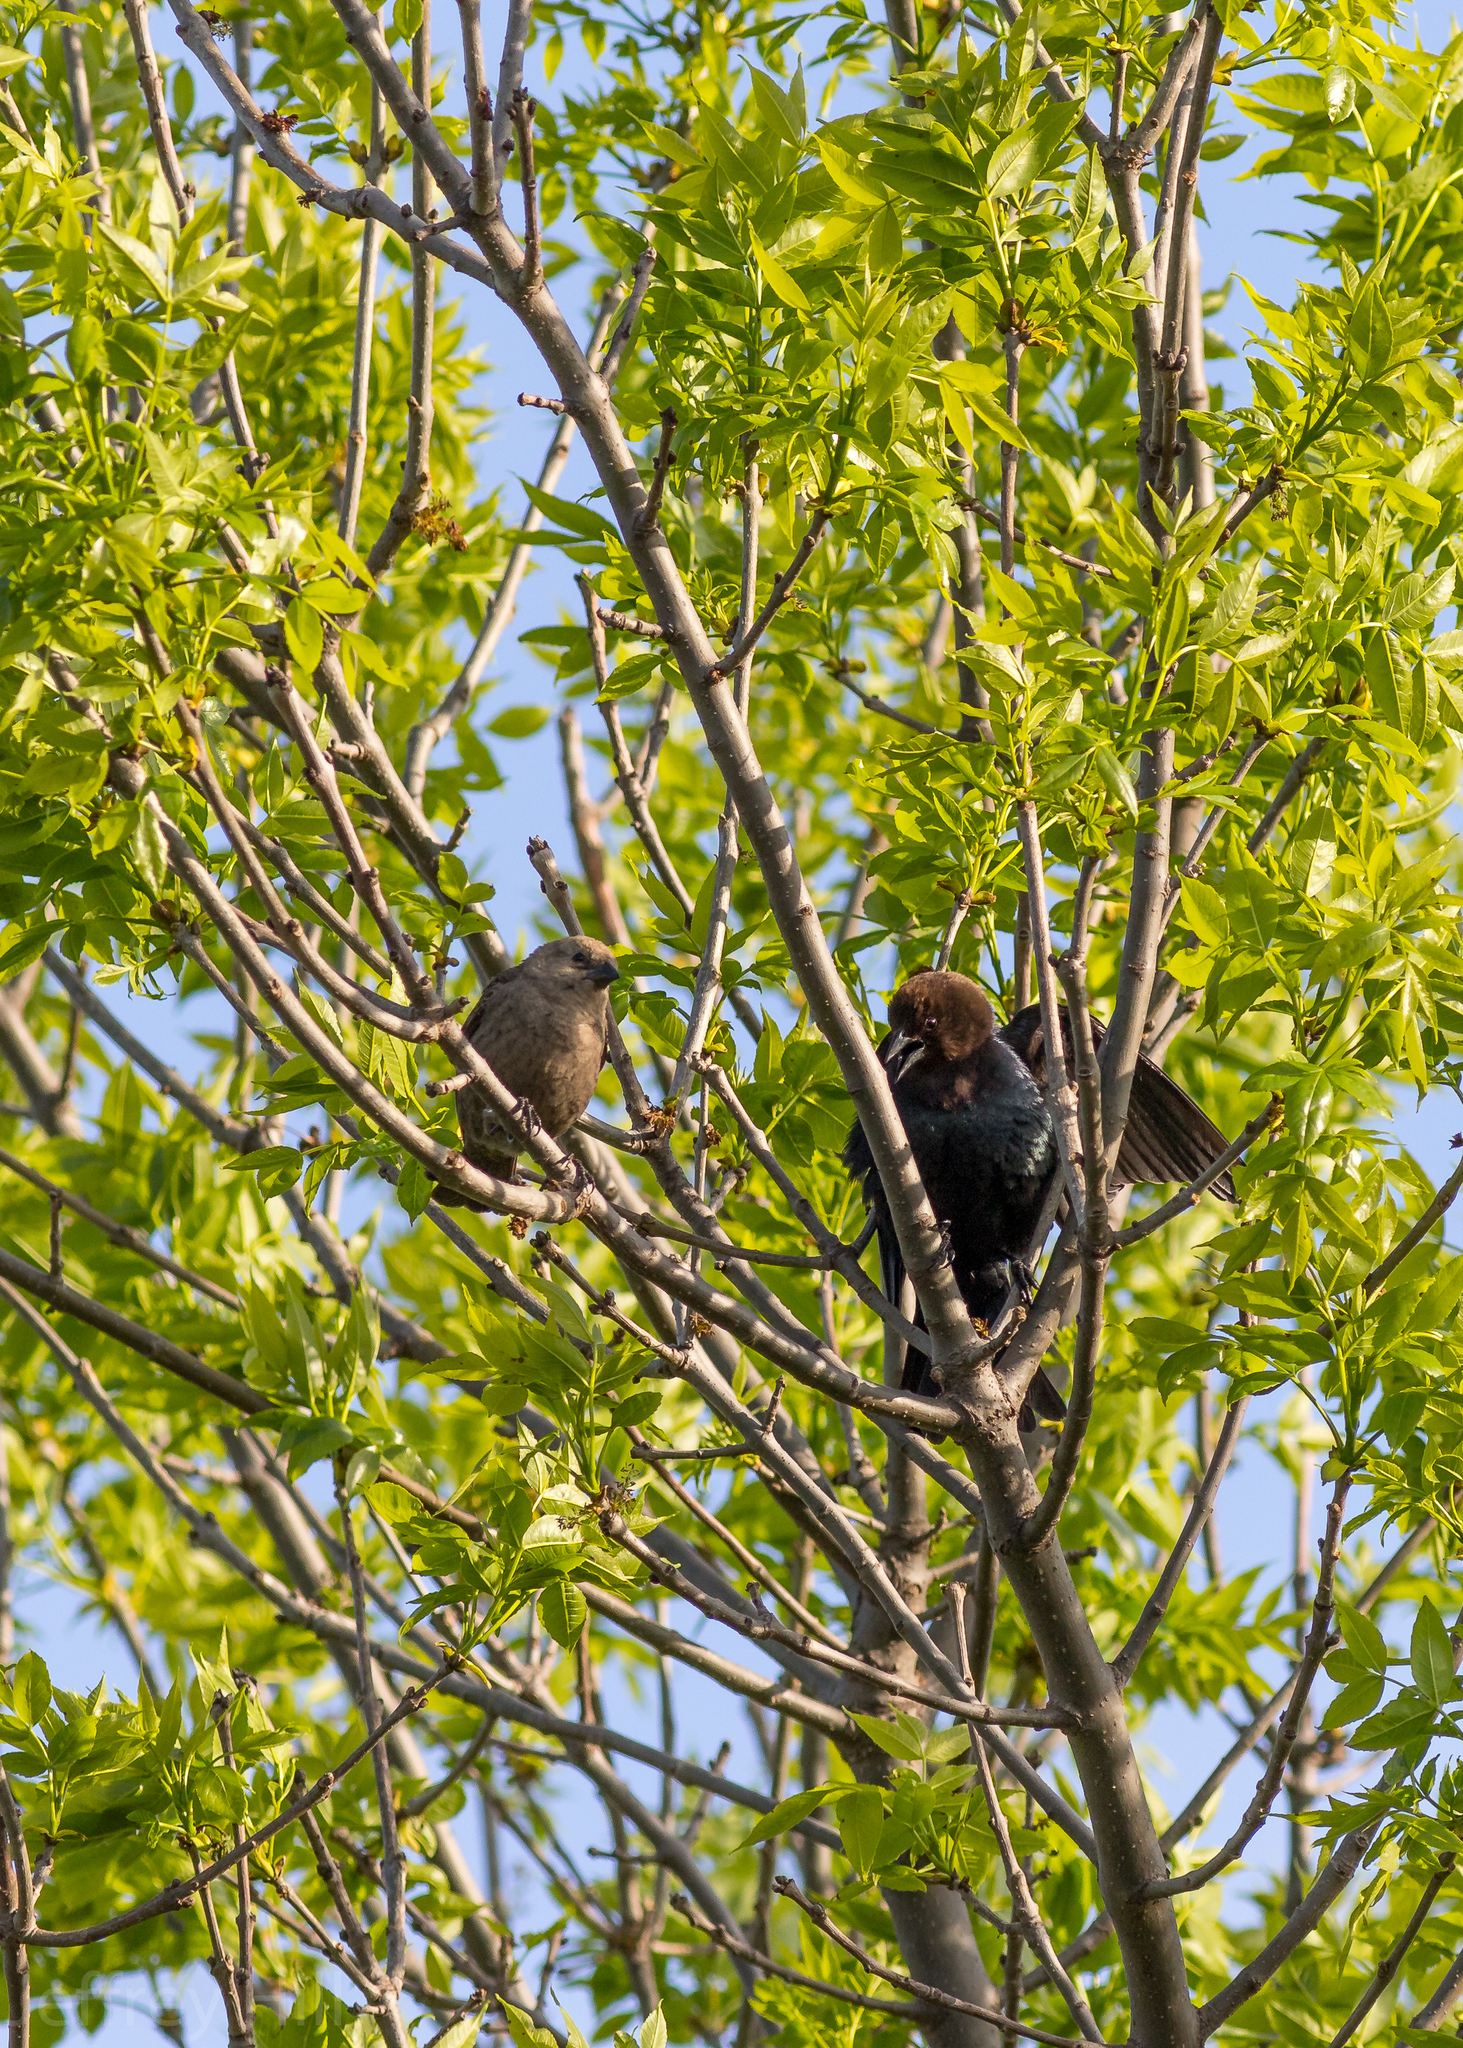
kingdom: Animalia
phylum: Chordata
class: Aves
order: Passeriformes
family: Icteridae
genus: Molothrus
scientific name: Molothrus ater
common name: Brown-headed cowbird
